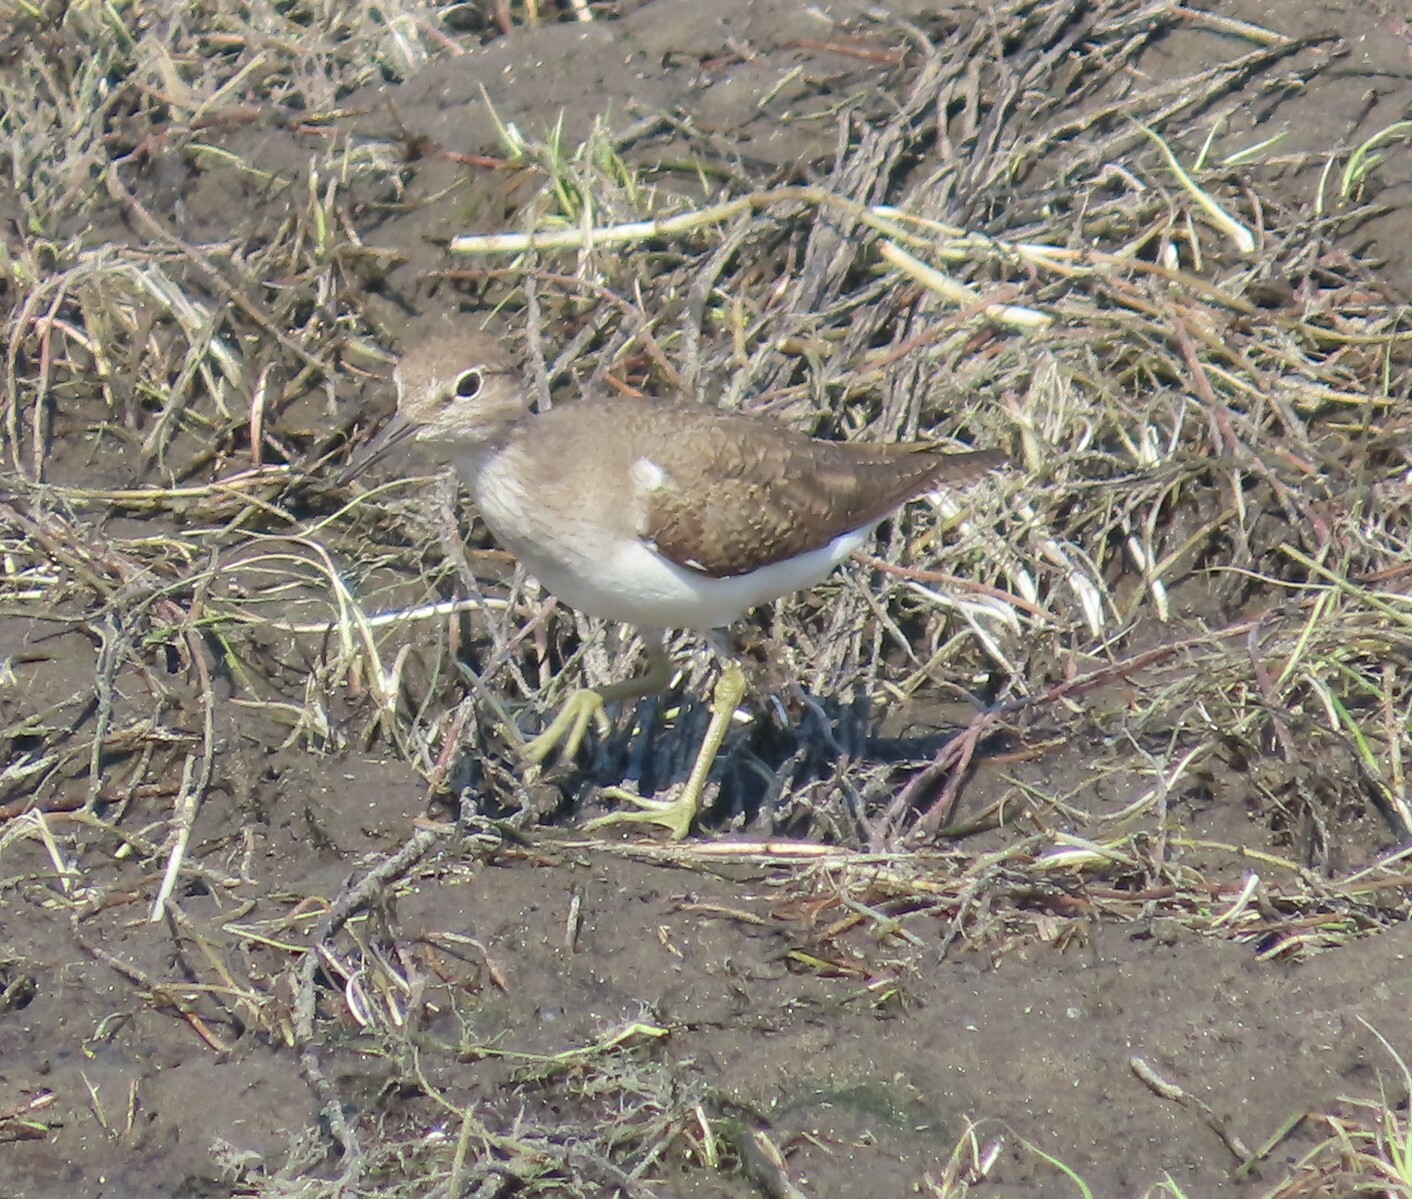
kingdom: Animalia
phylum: Chordata
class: Aves
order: Charadriiformes
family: Scolopacidae
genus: Actitis
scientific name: Actitis hypoleucos
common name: Common sandpiper
